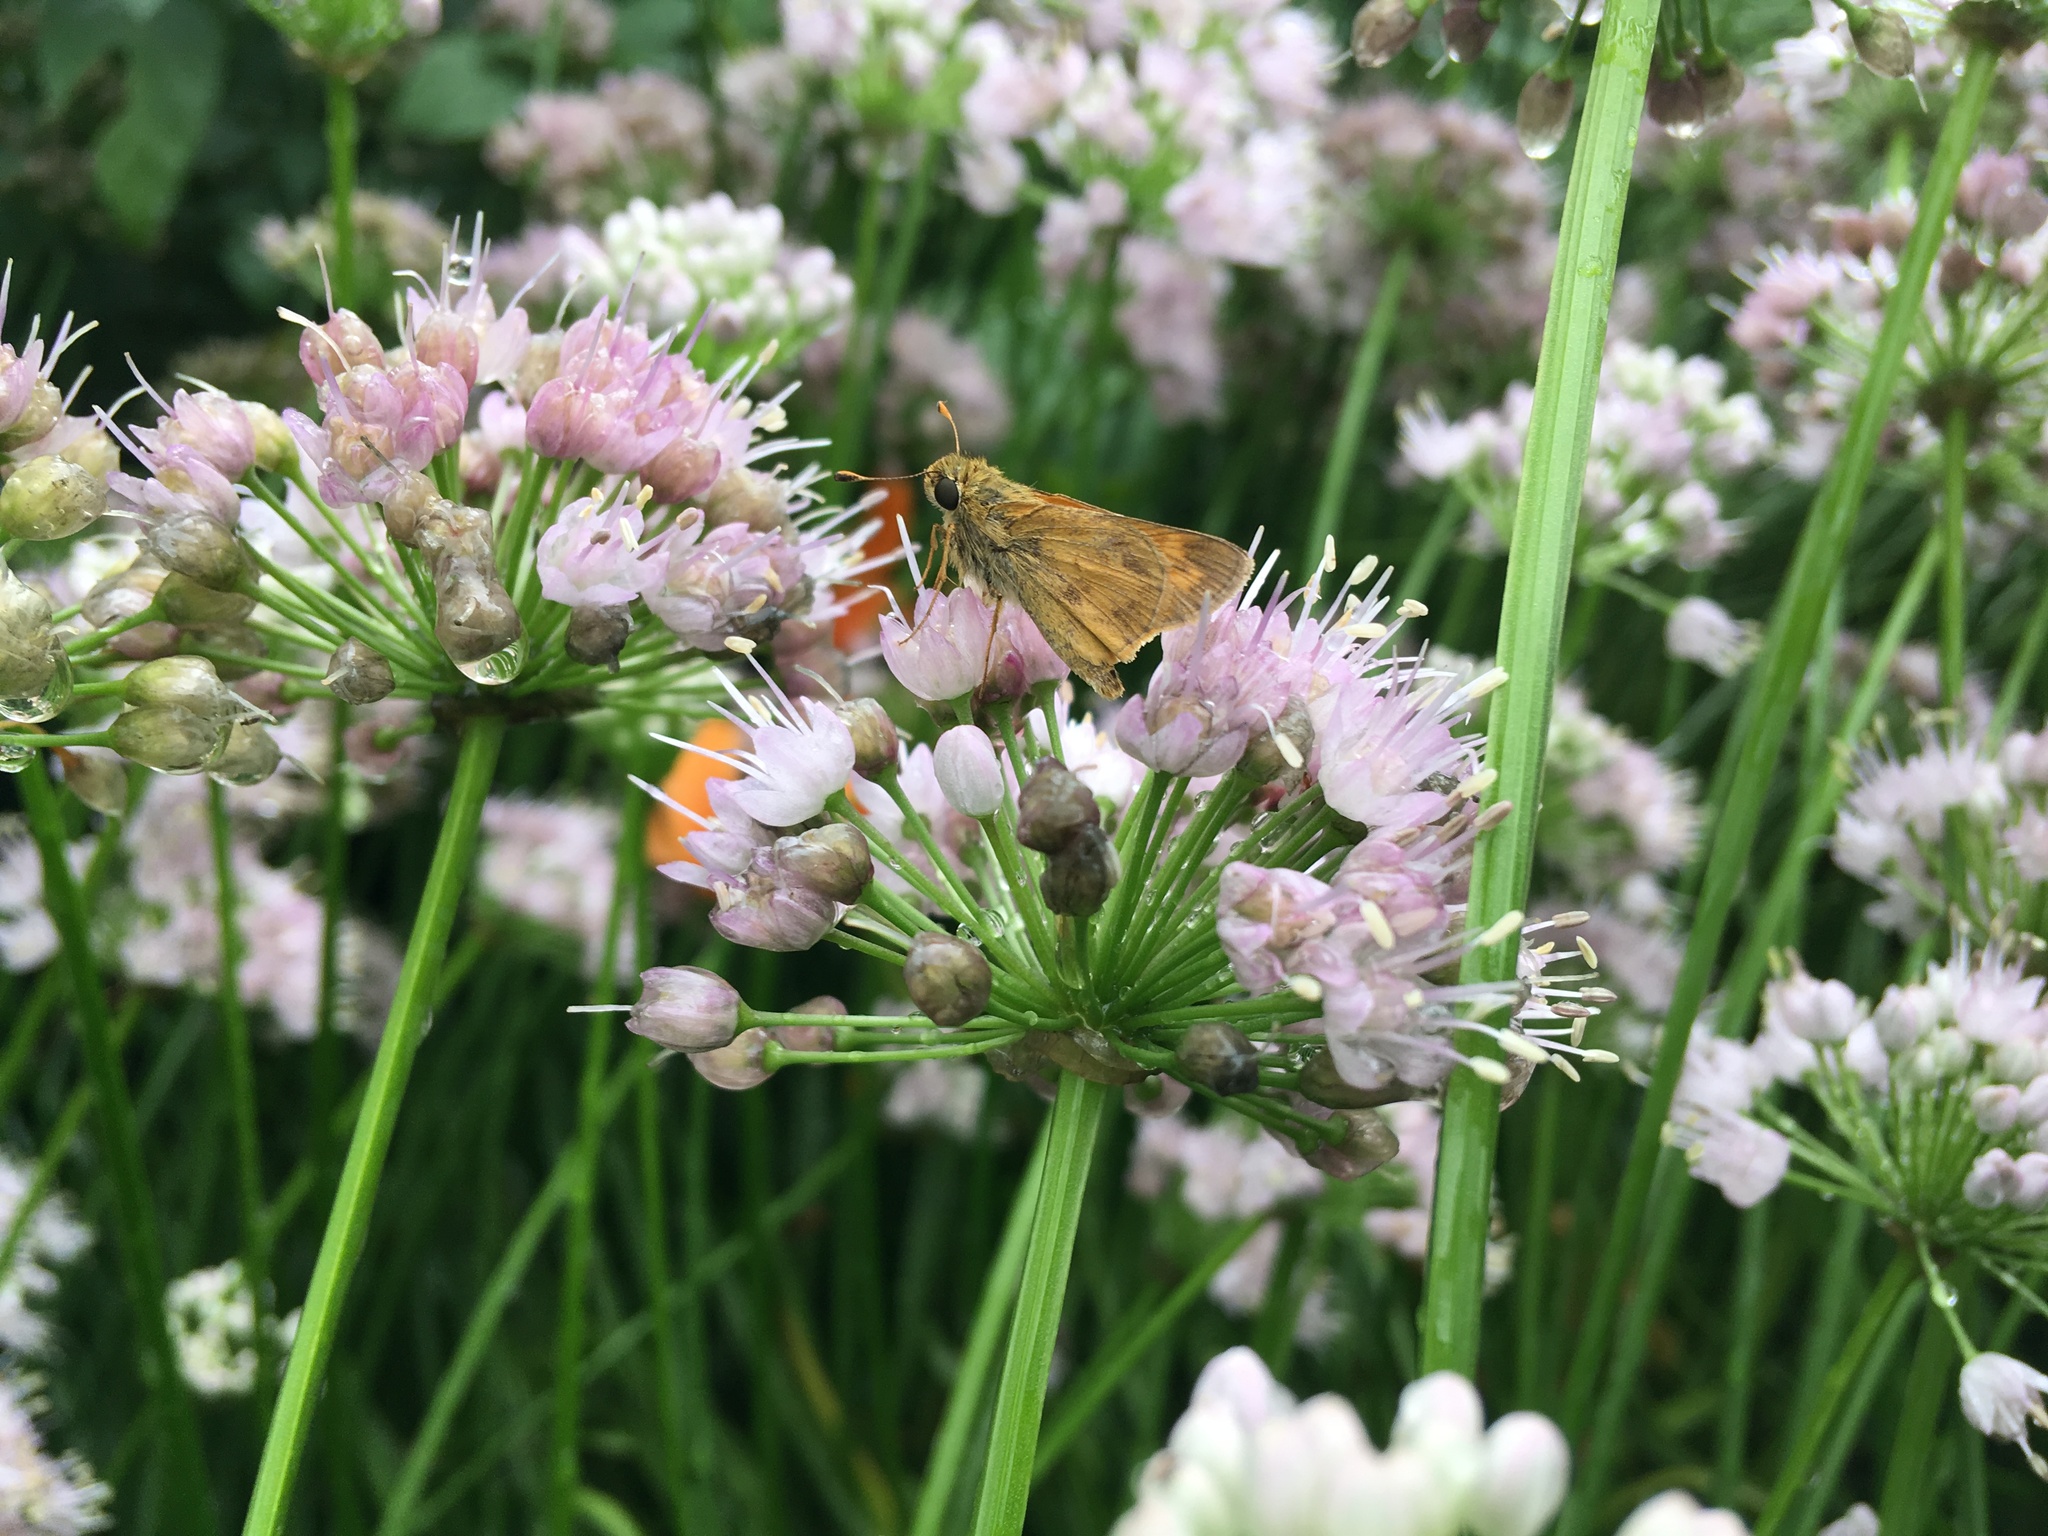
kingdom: Animalia
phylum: Arthropoda
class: Insecta
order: Lepidoptera
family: Hesperiidae
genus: Atalopedes
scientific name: Atalopedes
